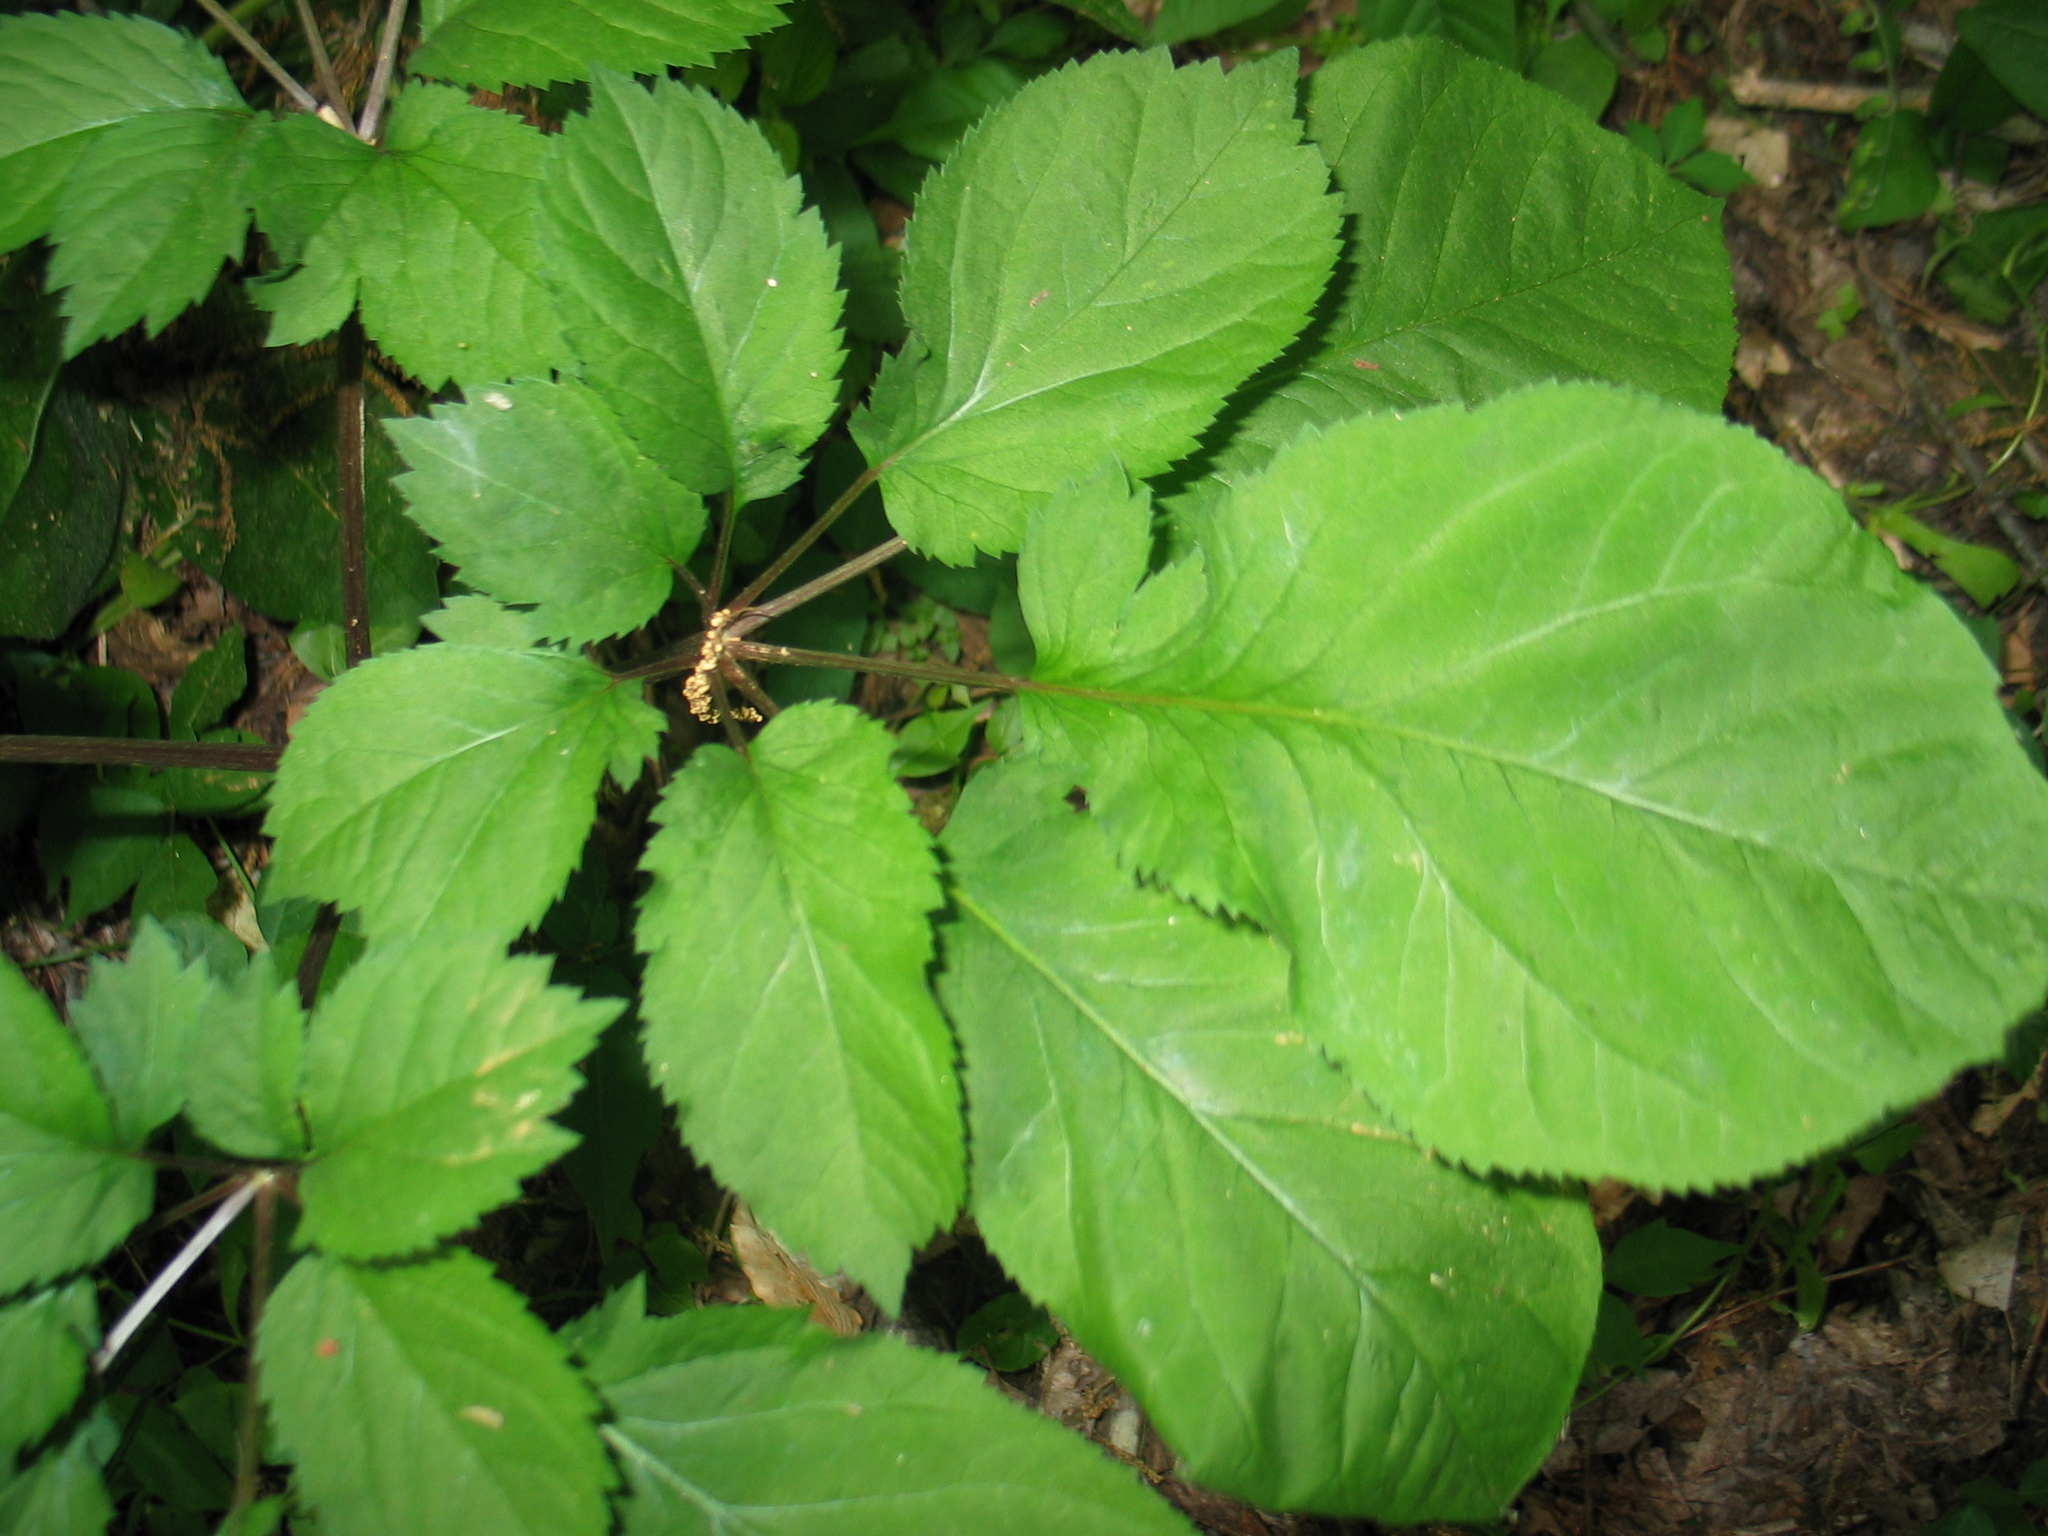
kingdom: Plantae
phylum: Tracheophyta
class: Magnoliopsida
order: Apiales
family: Araliaceae
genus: Panax
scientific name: Panax quinquefolius
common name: American ginseng
